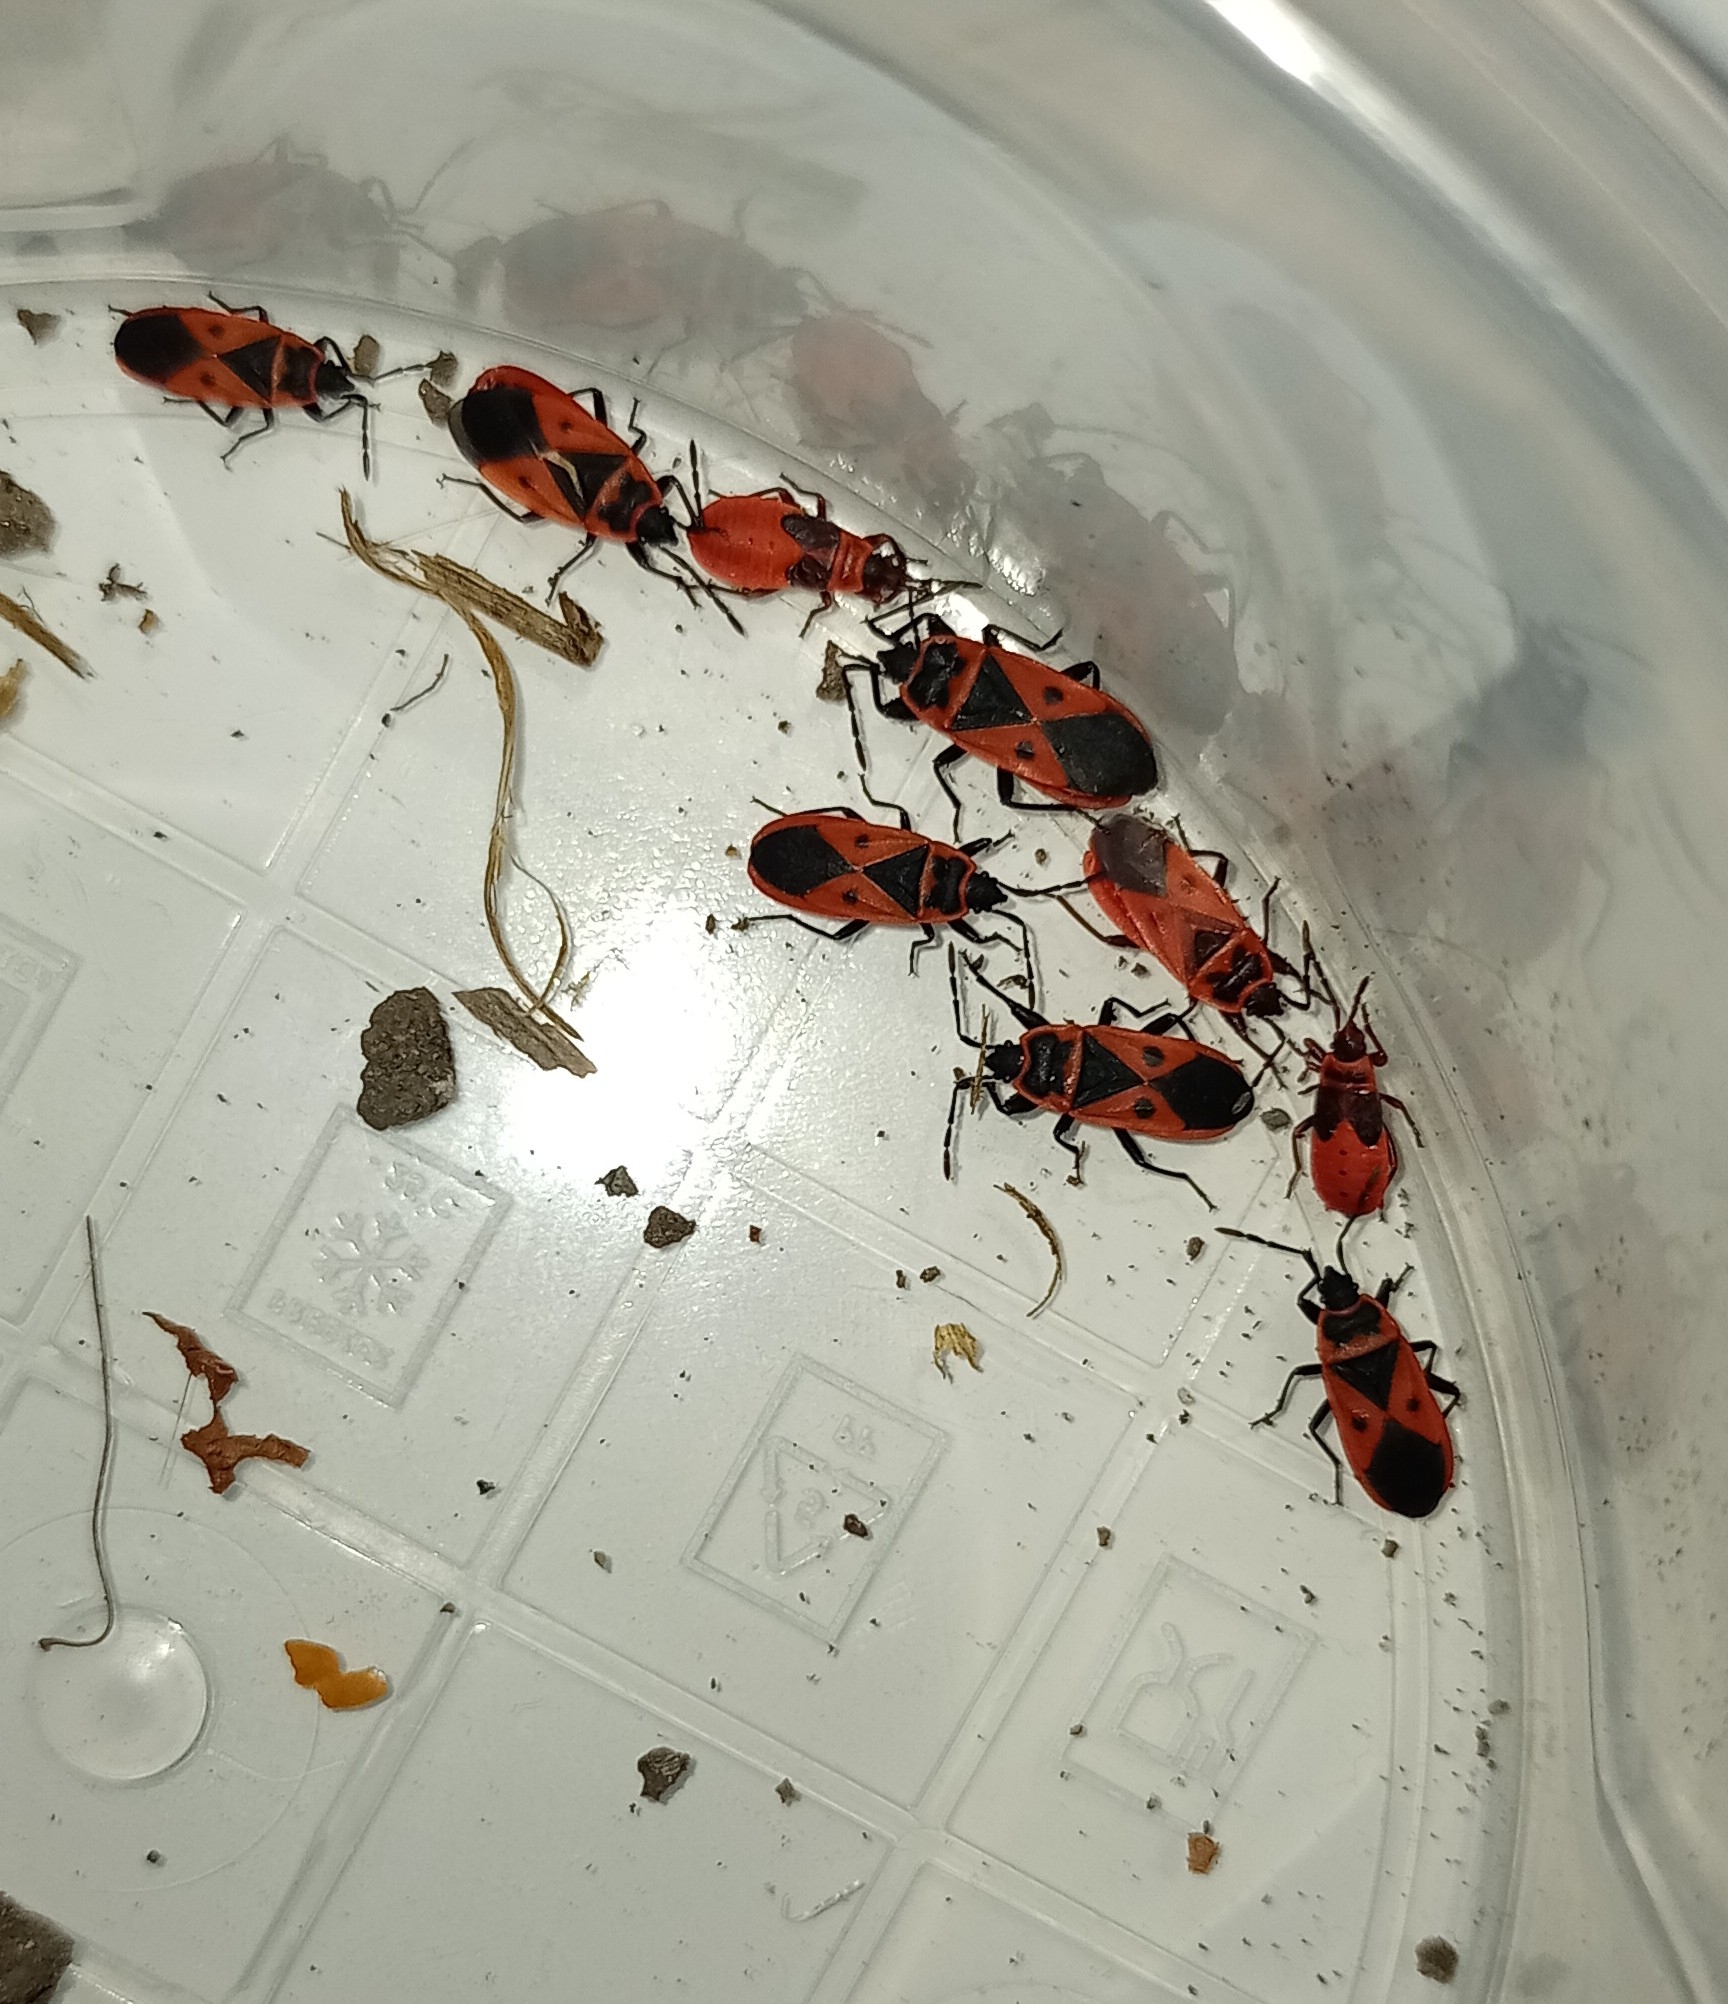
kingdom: Animalia
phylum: Arthropoda
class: Insecta
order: Hemiptera
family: Pyrrhocoridae
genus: Scantius
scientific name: Scantius aegyptius
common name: Red bug
